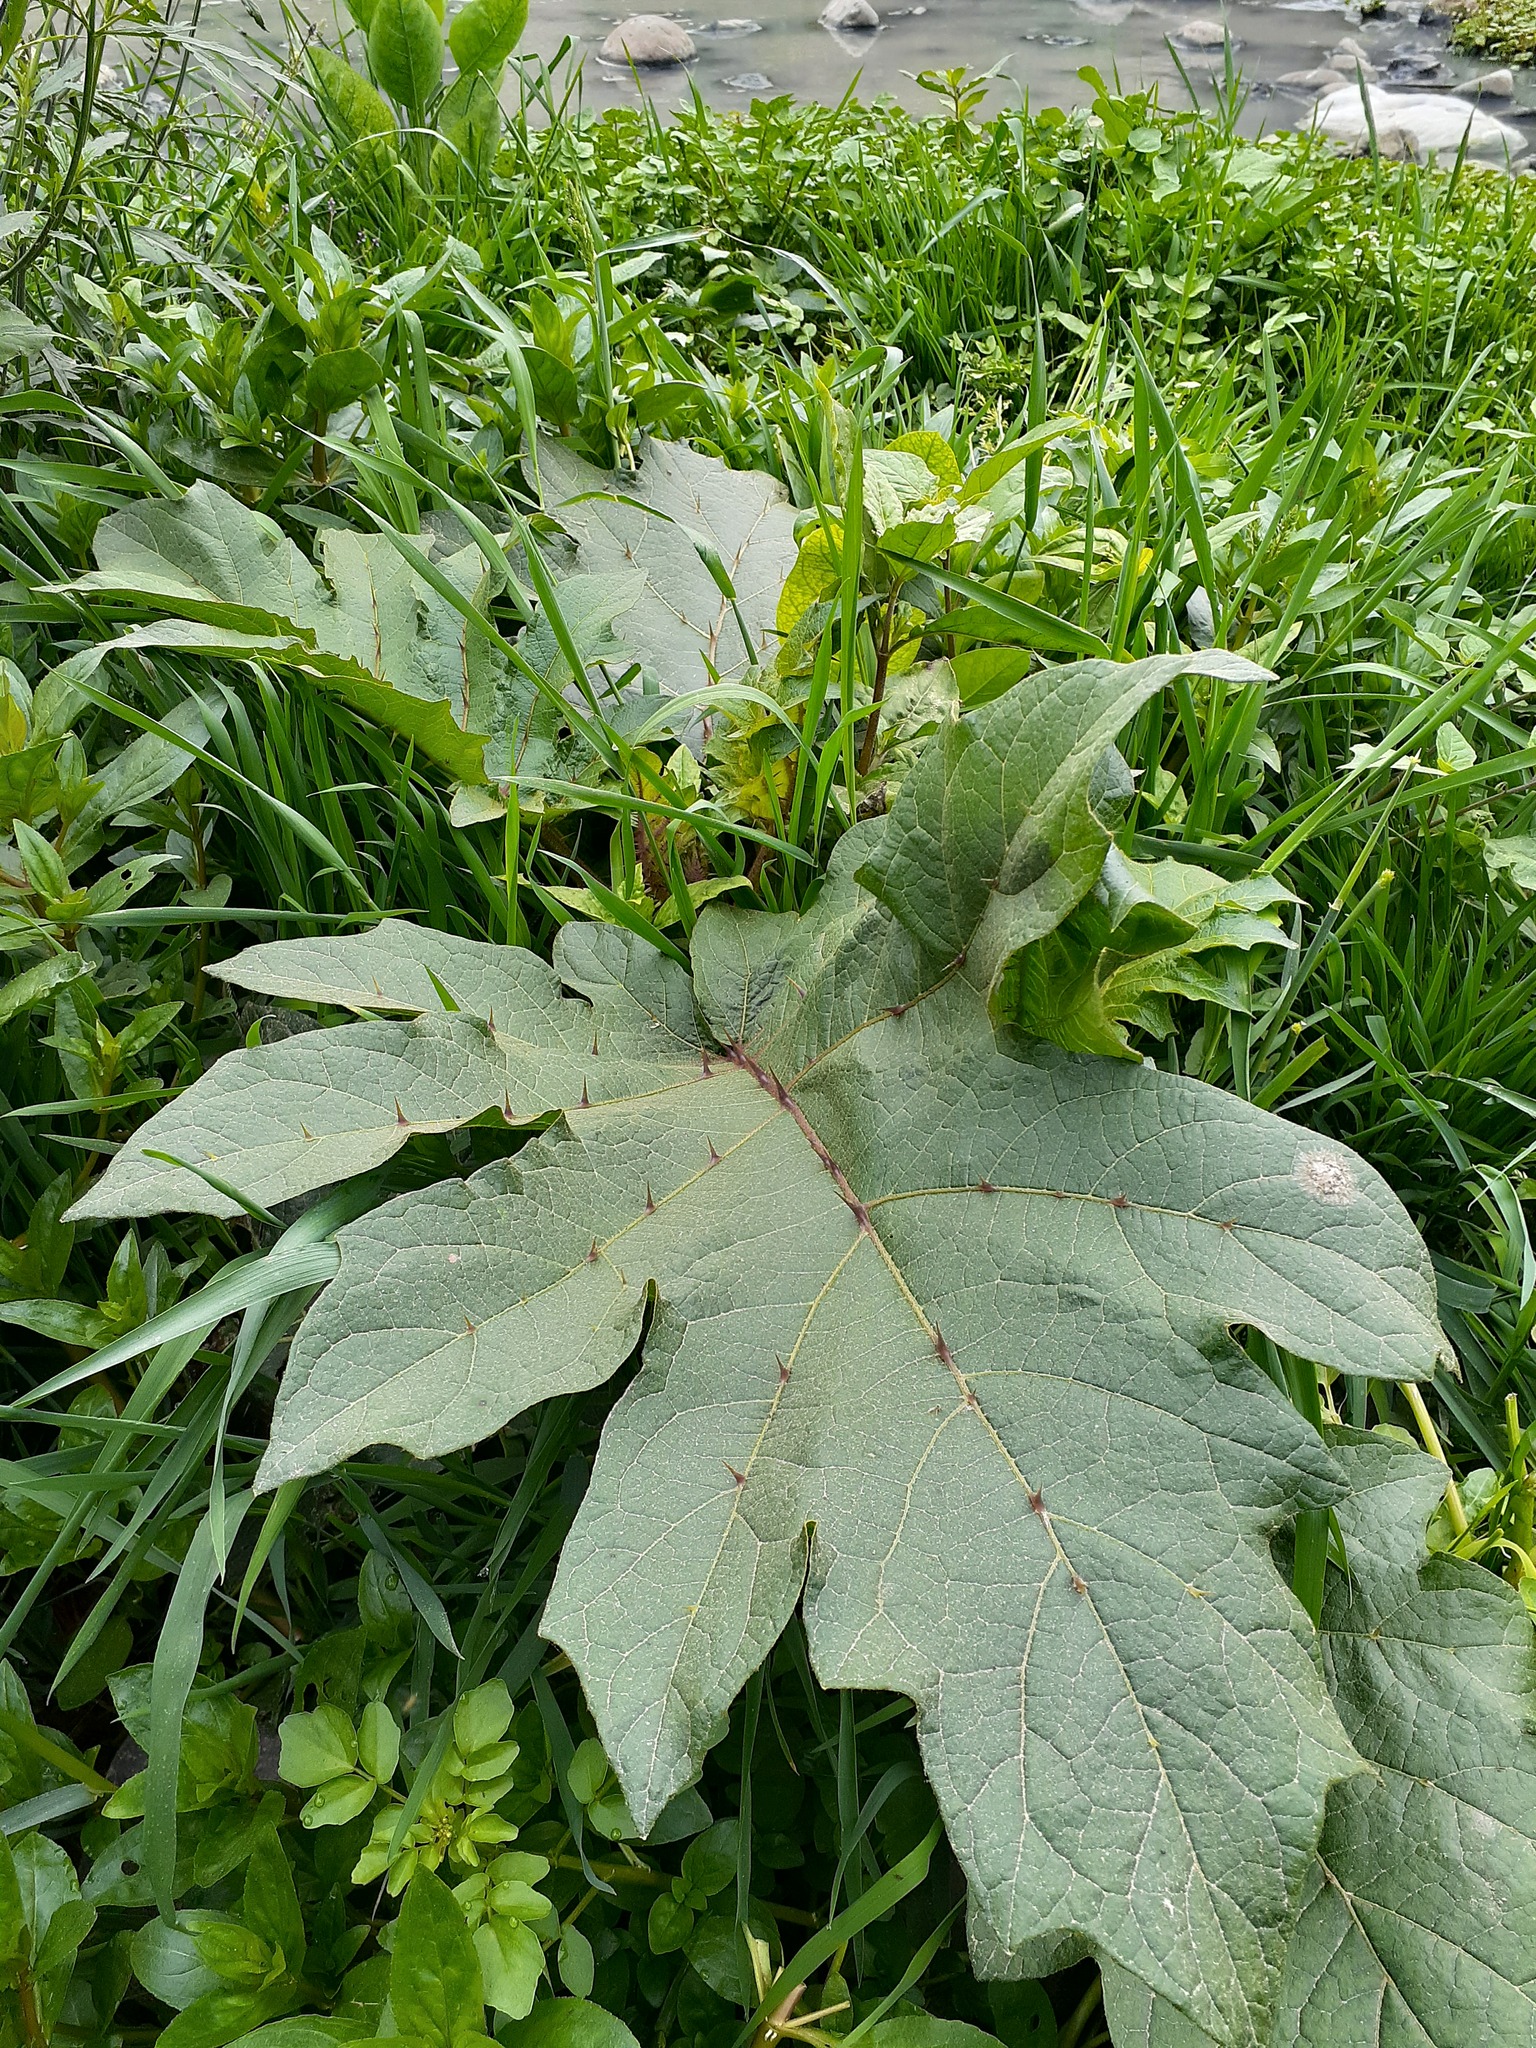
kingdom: Plantae
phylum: Tracheophyta
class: Magnoliopsida
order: Solanales
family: Solanaceae
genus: Solanum
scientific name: Solanum
